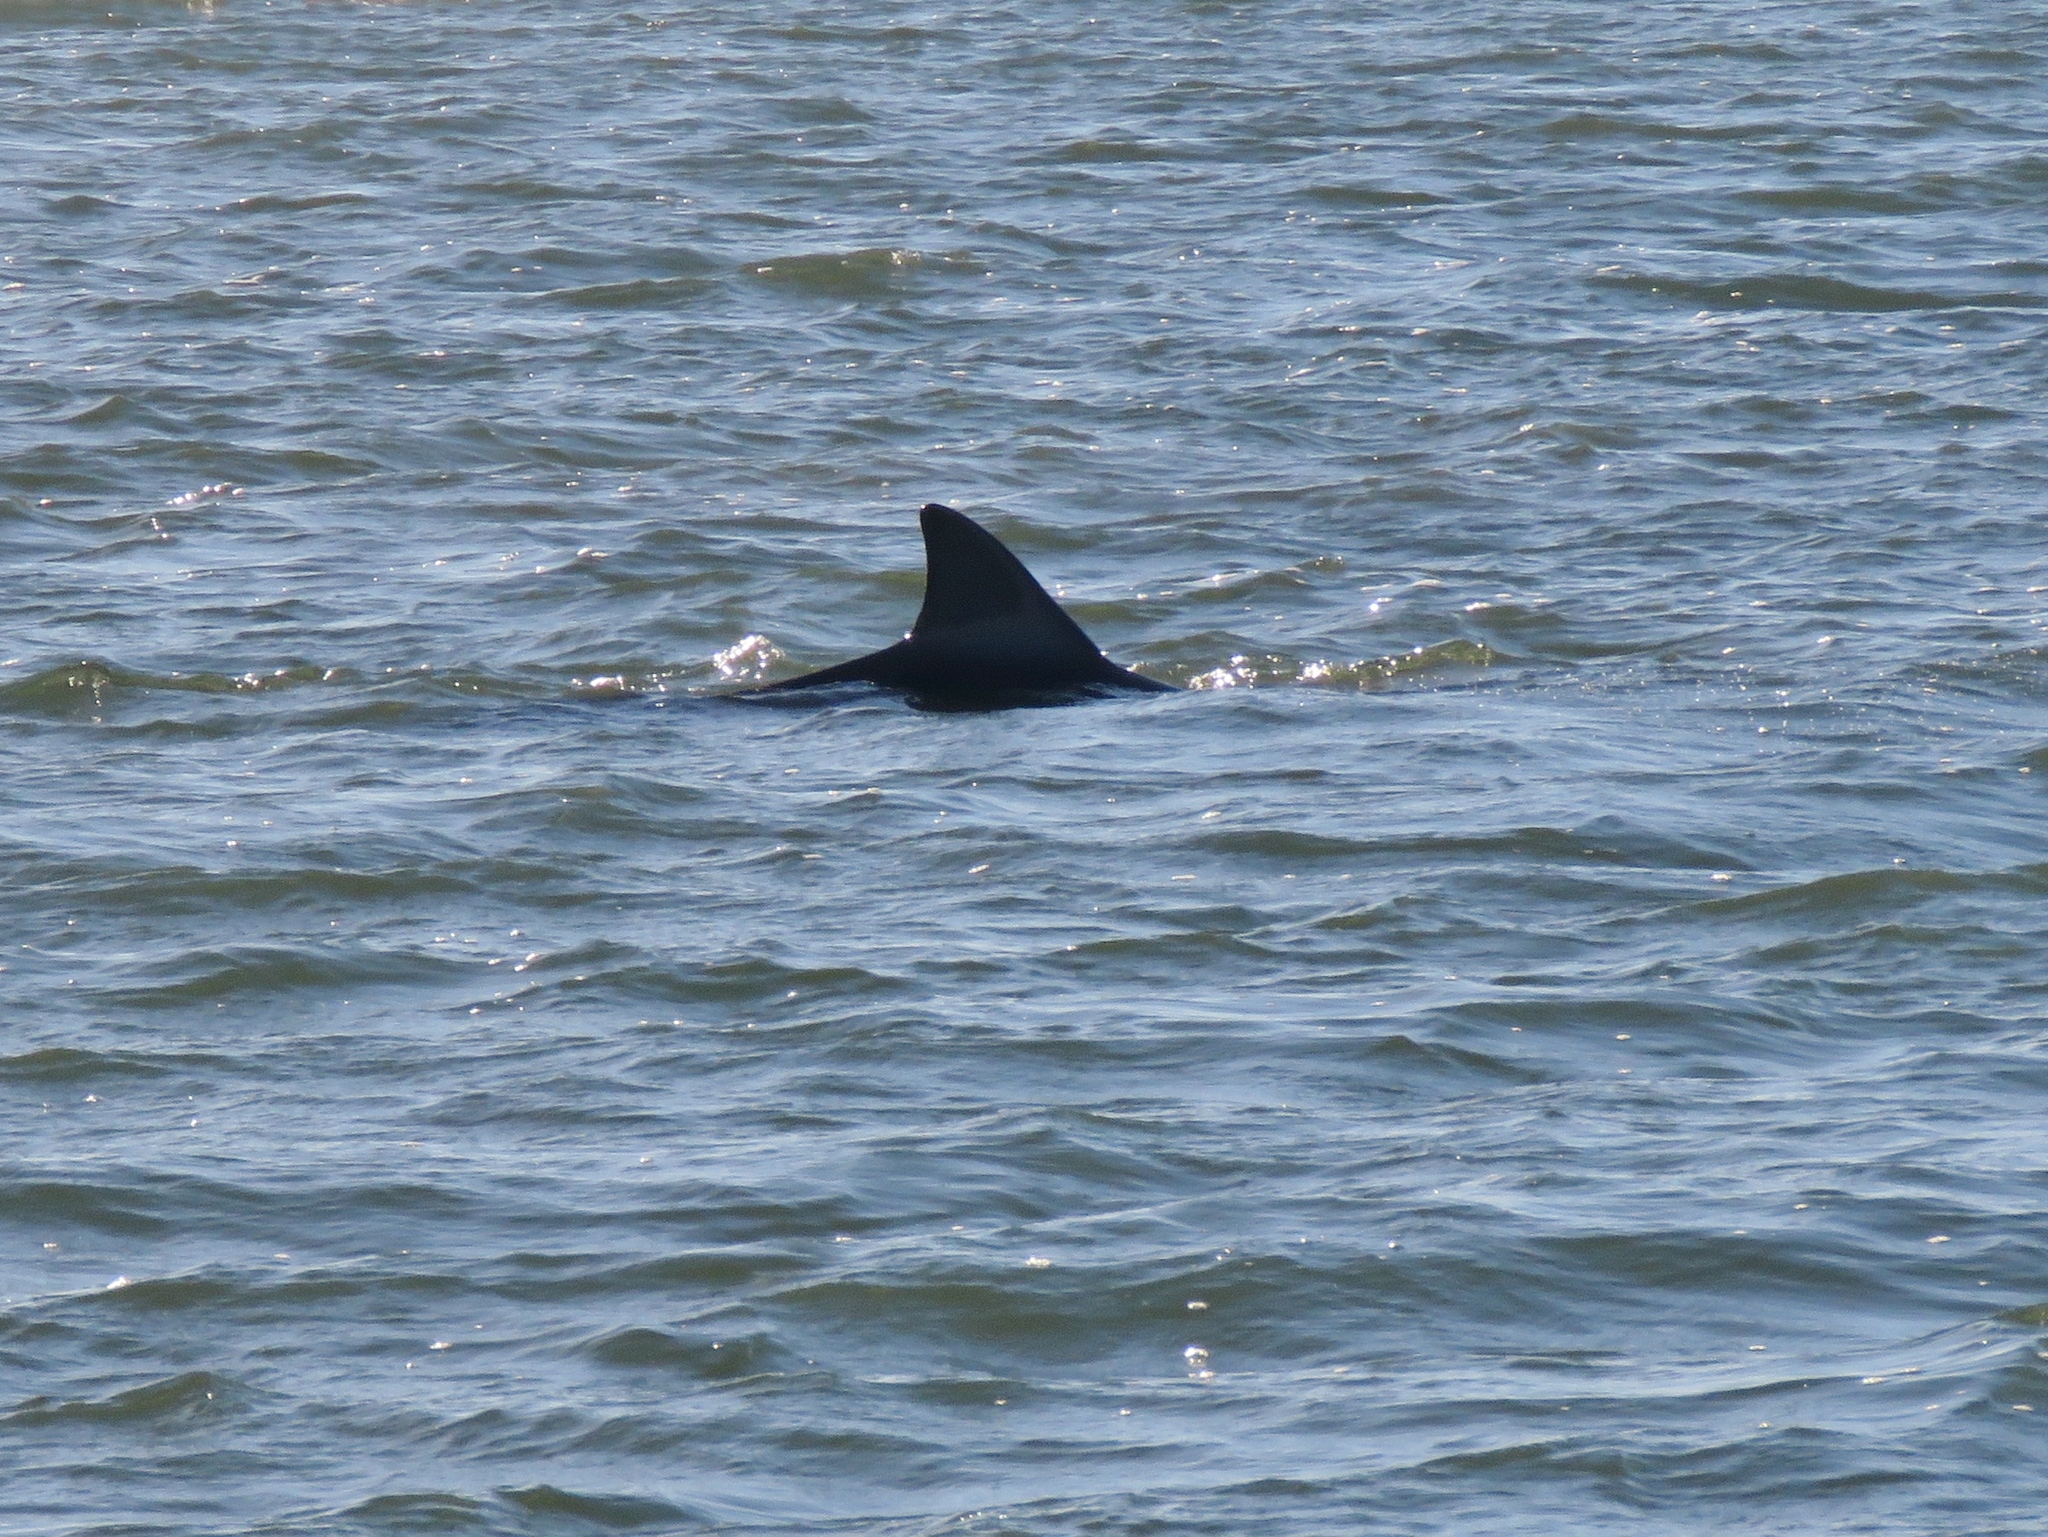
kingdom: Animalia
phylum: Chordata
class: Mammalia
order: Cetacea
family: Delphinidae
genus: Tursiops
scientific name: Tursiops truncatus
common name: Bottlenose dolphin
